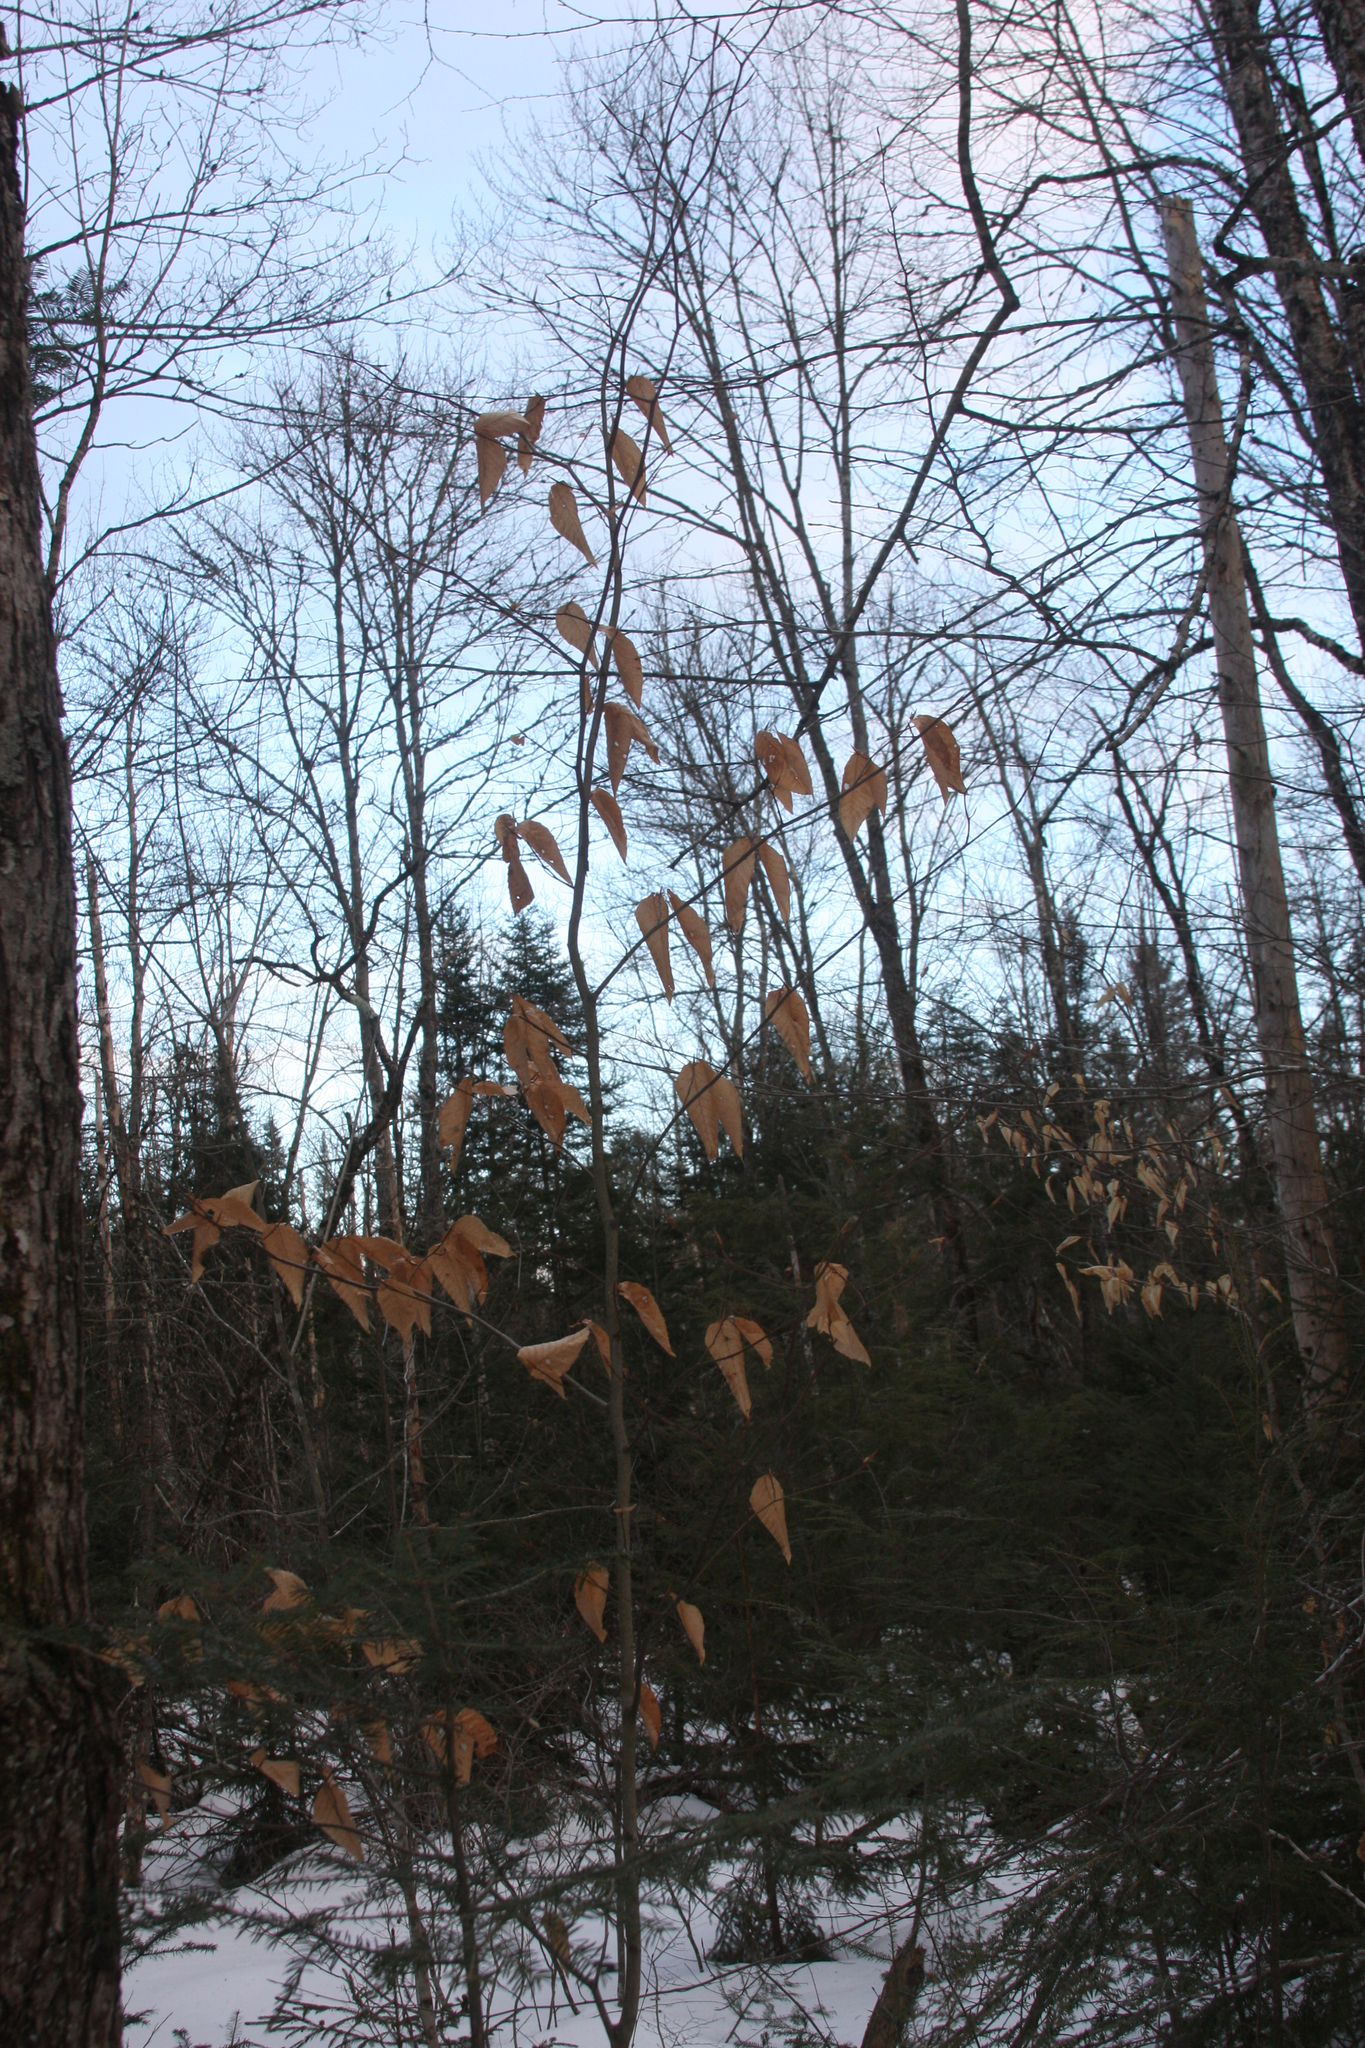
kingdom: Plantae
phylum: Tracheophyta
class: Magnoliopsida
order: Fagales
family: Fagaceae
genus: Fagus
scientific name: Fagus grandifolia
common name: American beech
